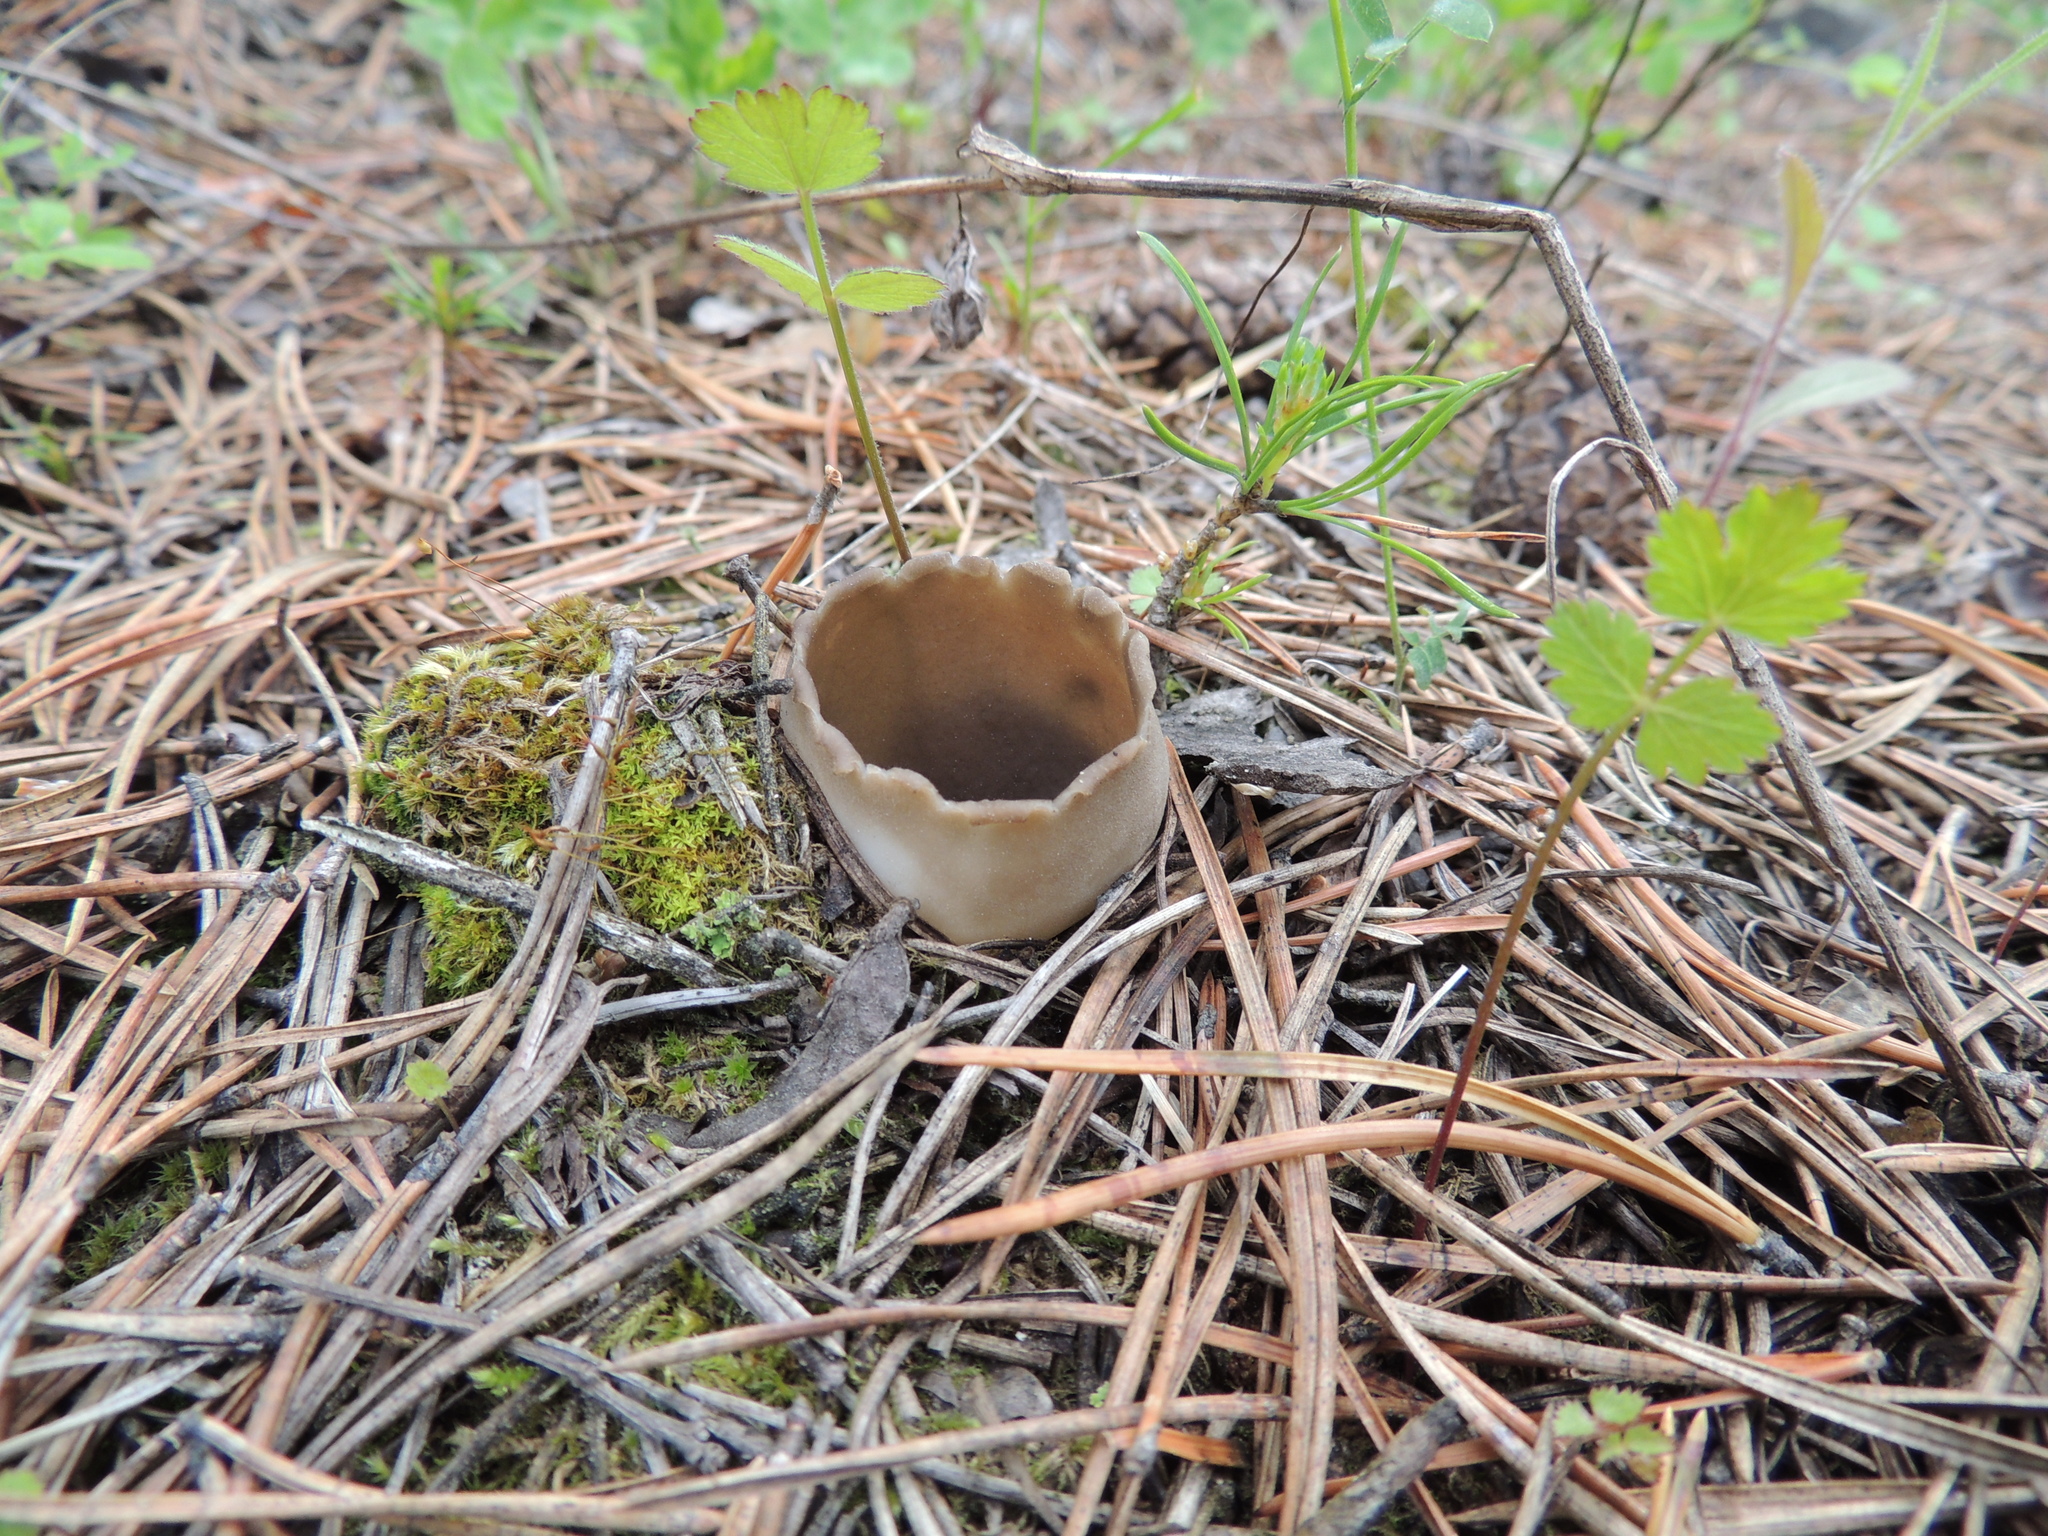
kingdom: Fungi
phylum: Ascomycota
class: Pezizomycetes
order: Pezizales
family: Helvellaceae
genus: Dissingia
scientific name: Dissingia leucomelaena
